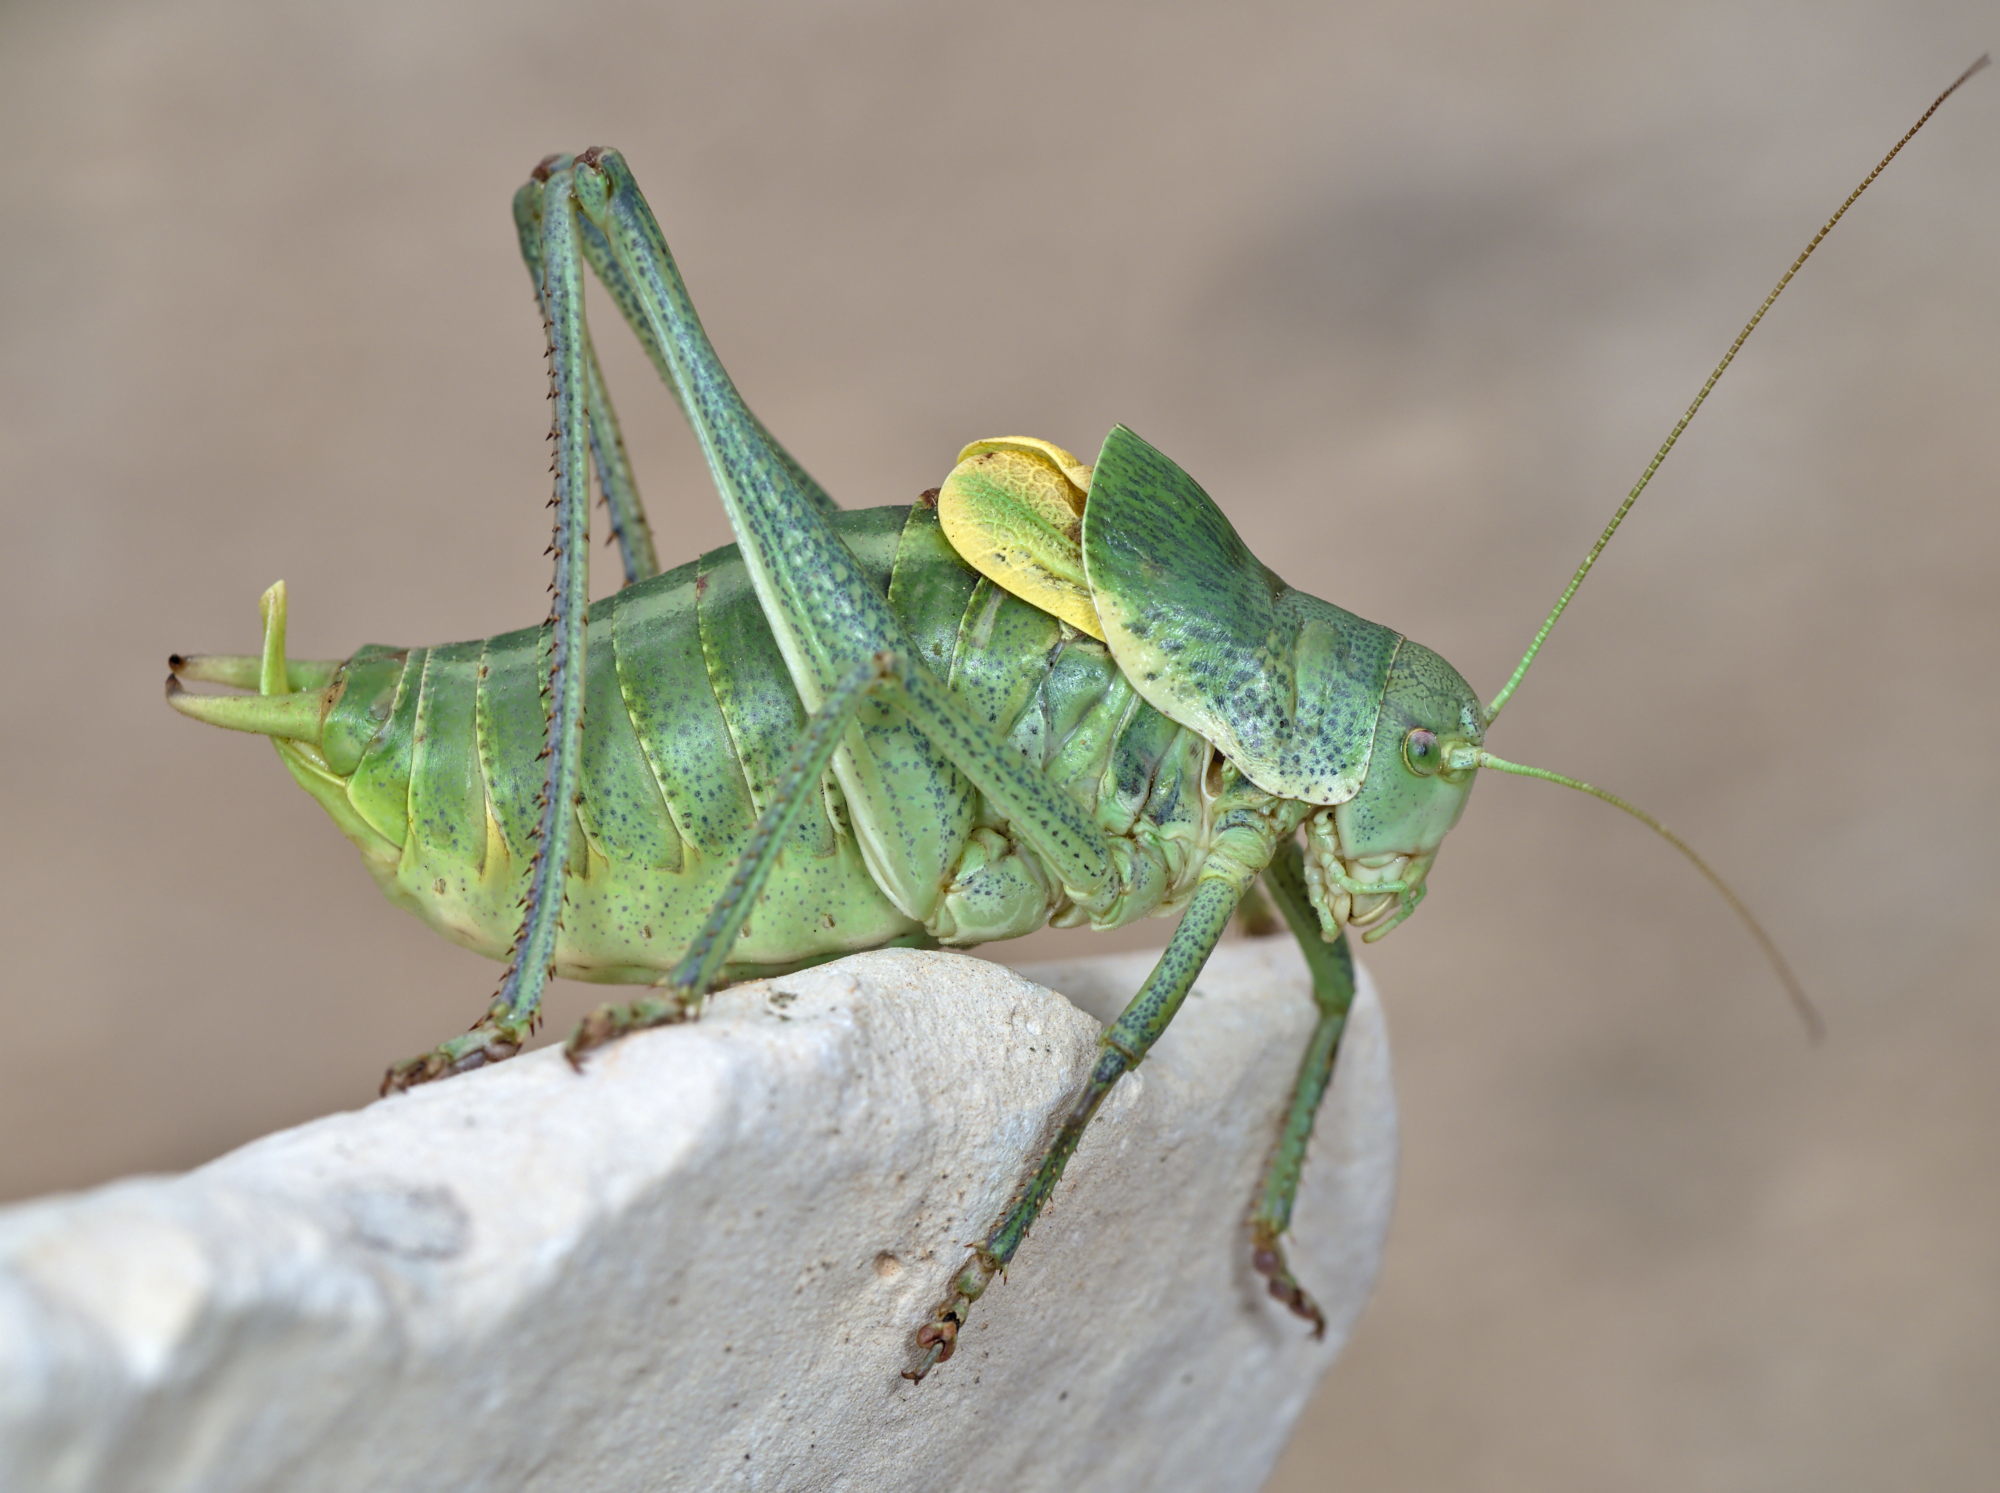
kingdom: Animalia
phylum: Arthropoda
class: Insecta
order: Orthoptera
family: Tettigoniidae
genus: Polysarcus
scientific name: Polysarcus denticauda
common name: Large saw-tailed bush-cricket
